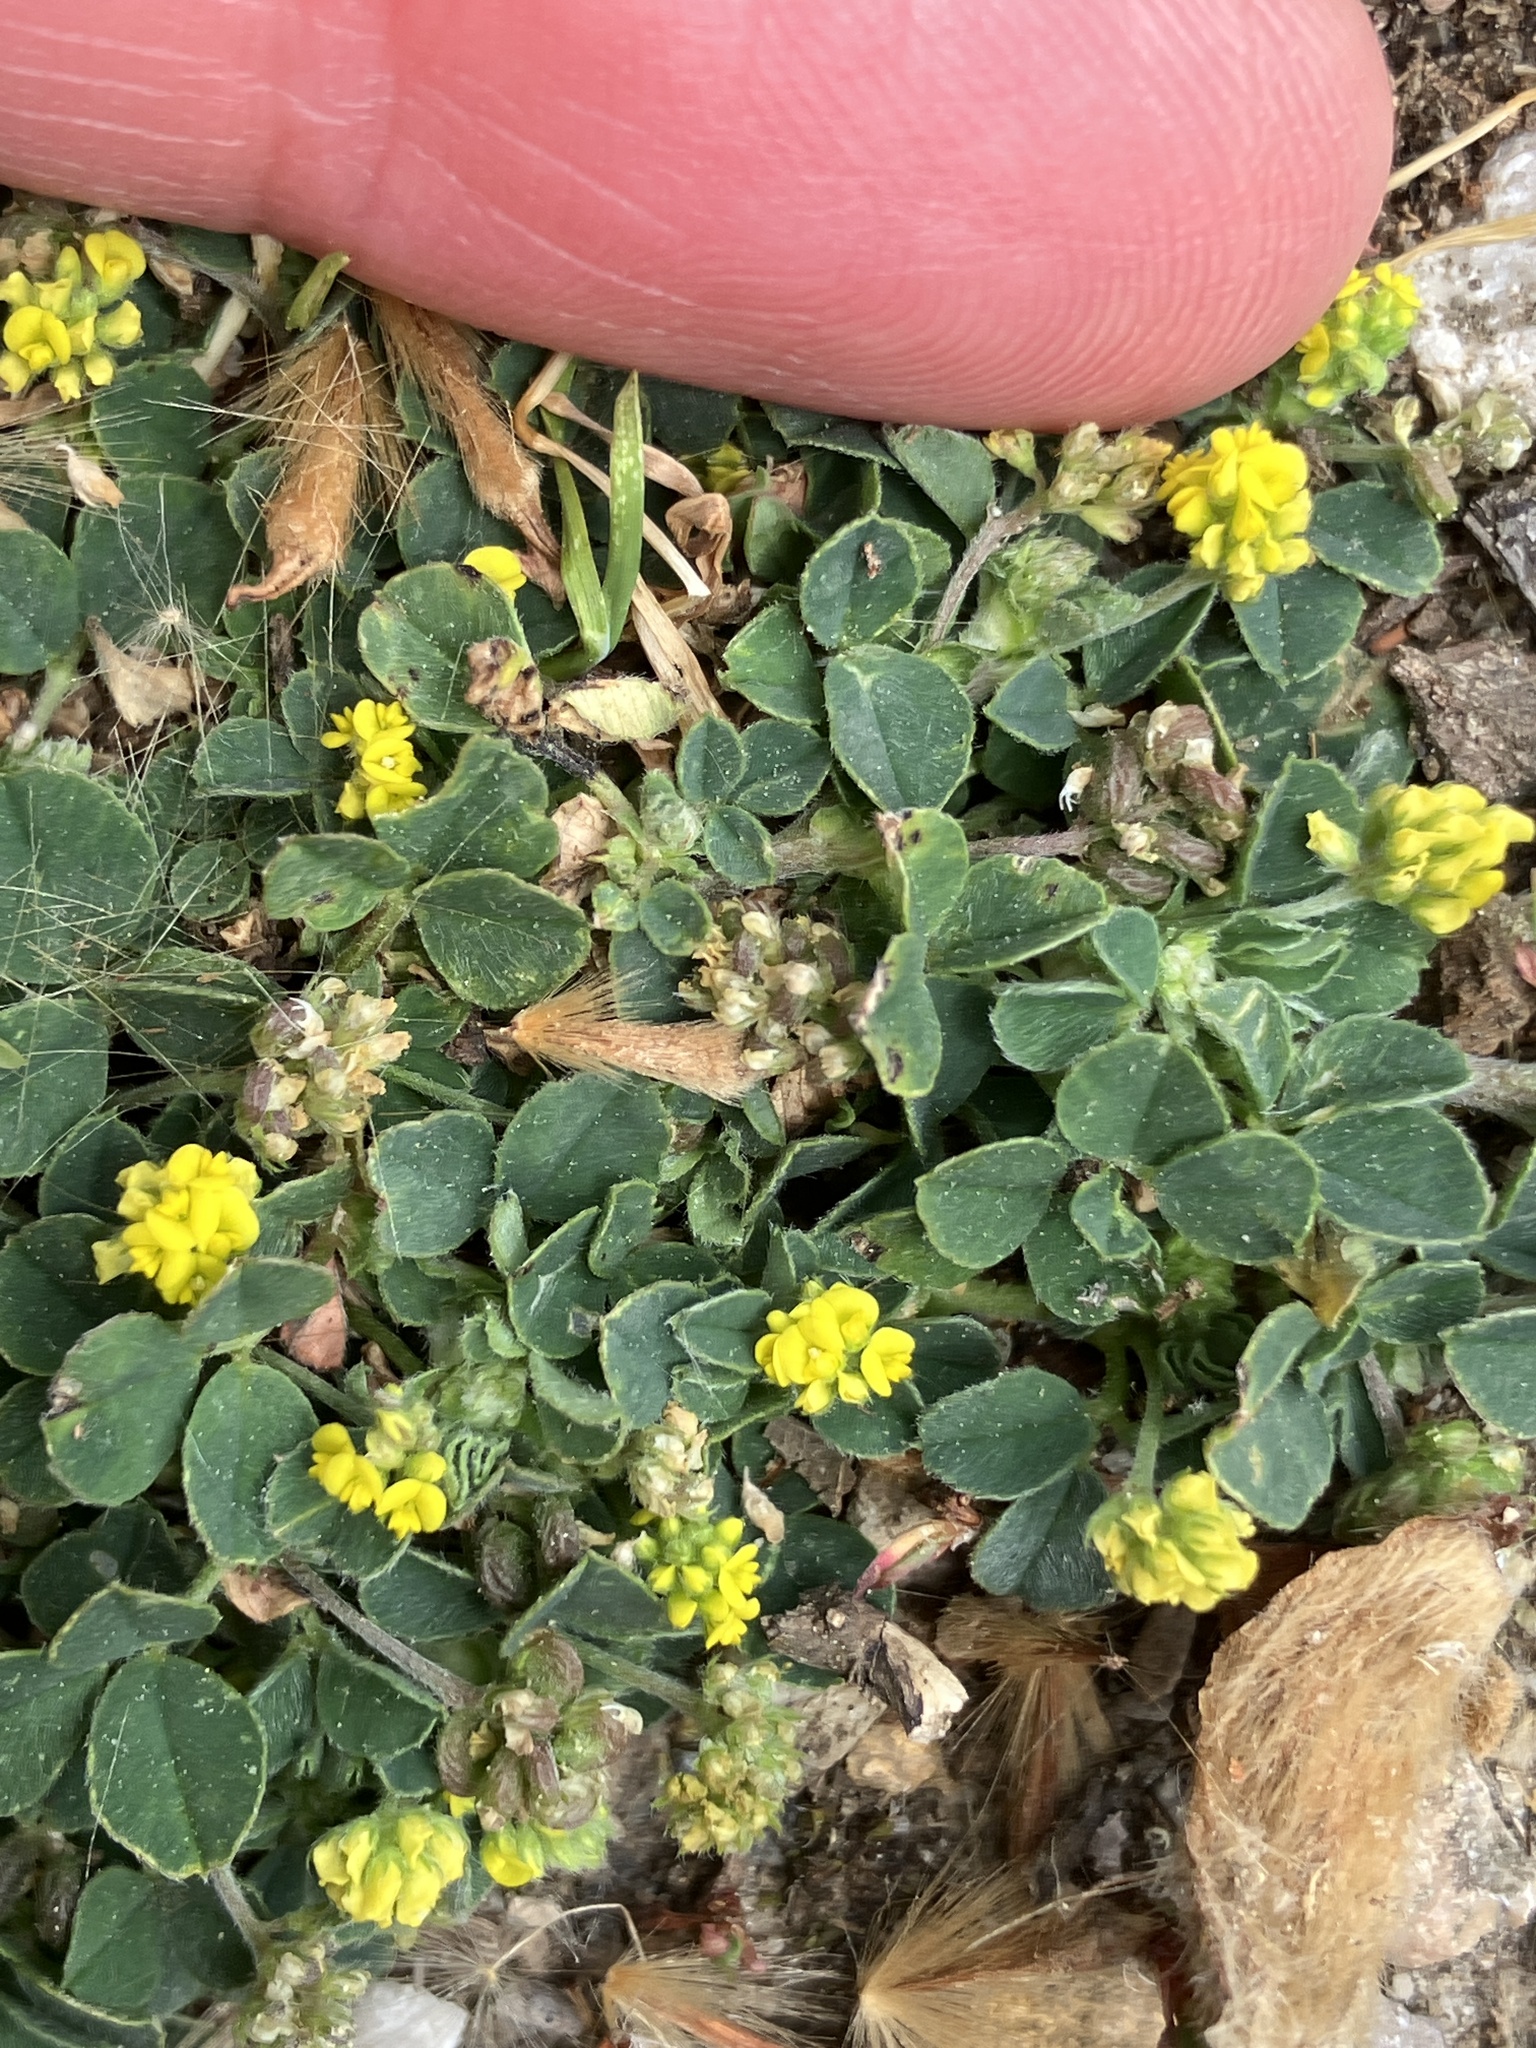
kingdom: Plantae
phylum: Tracheophyta
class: Magnoliopsida
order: Fabales
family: Fabaceae
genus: Medicago
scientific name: Medicago lupulina
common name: Black medick
